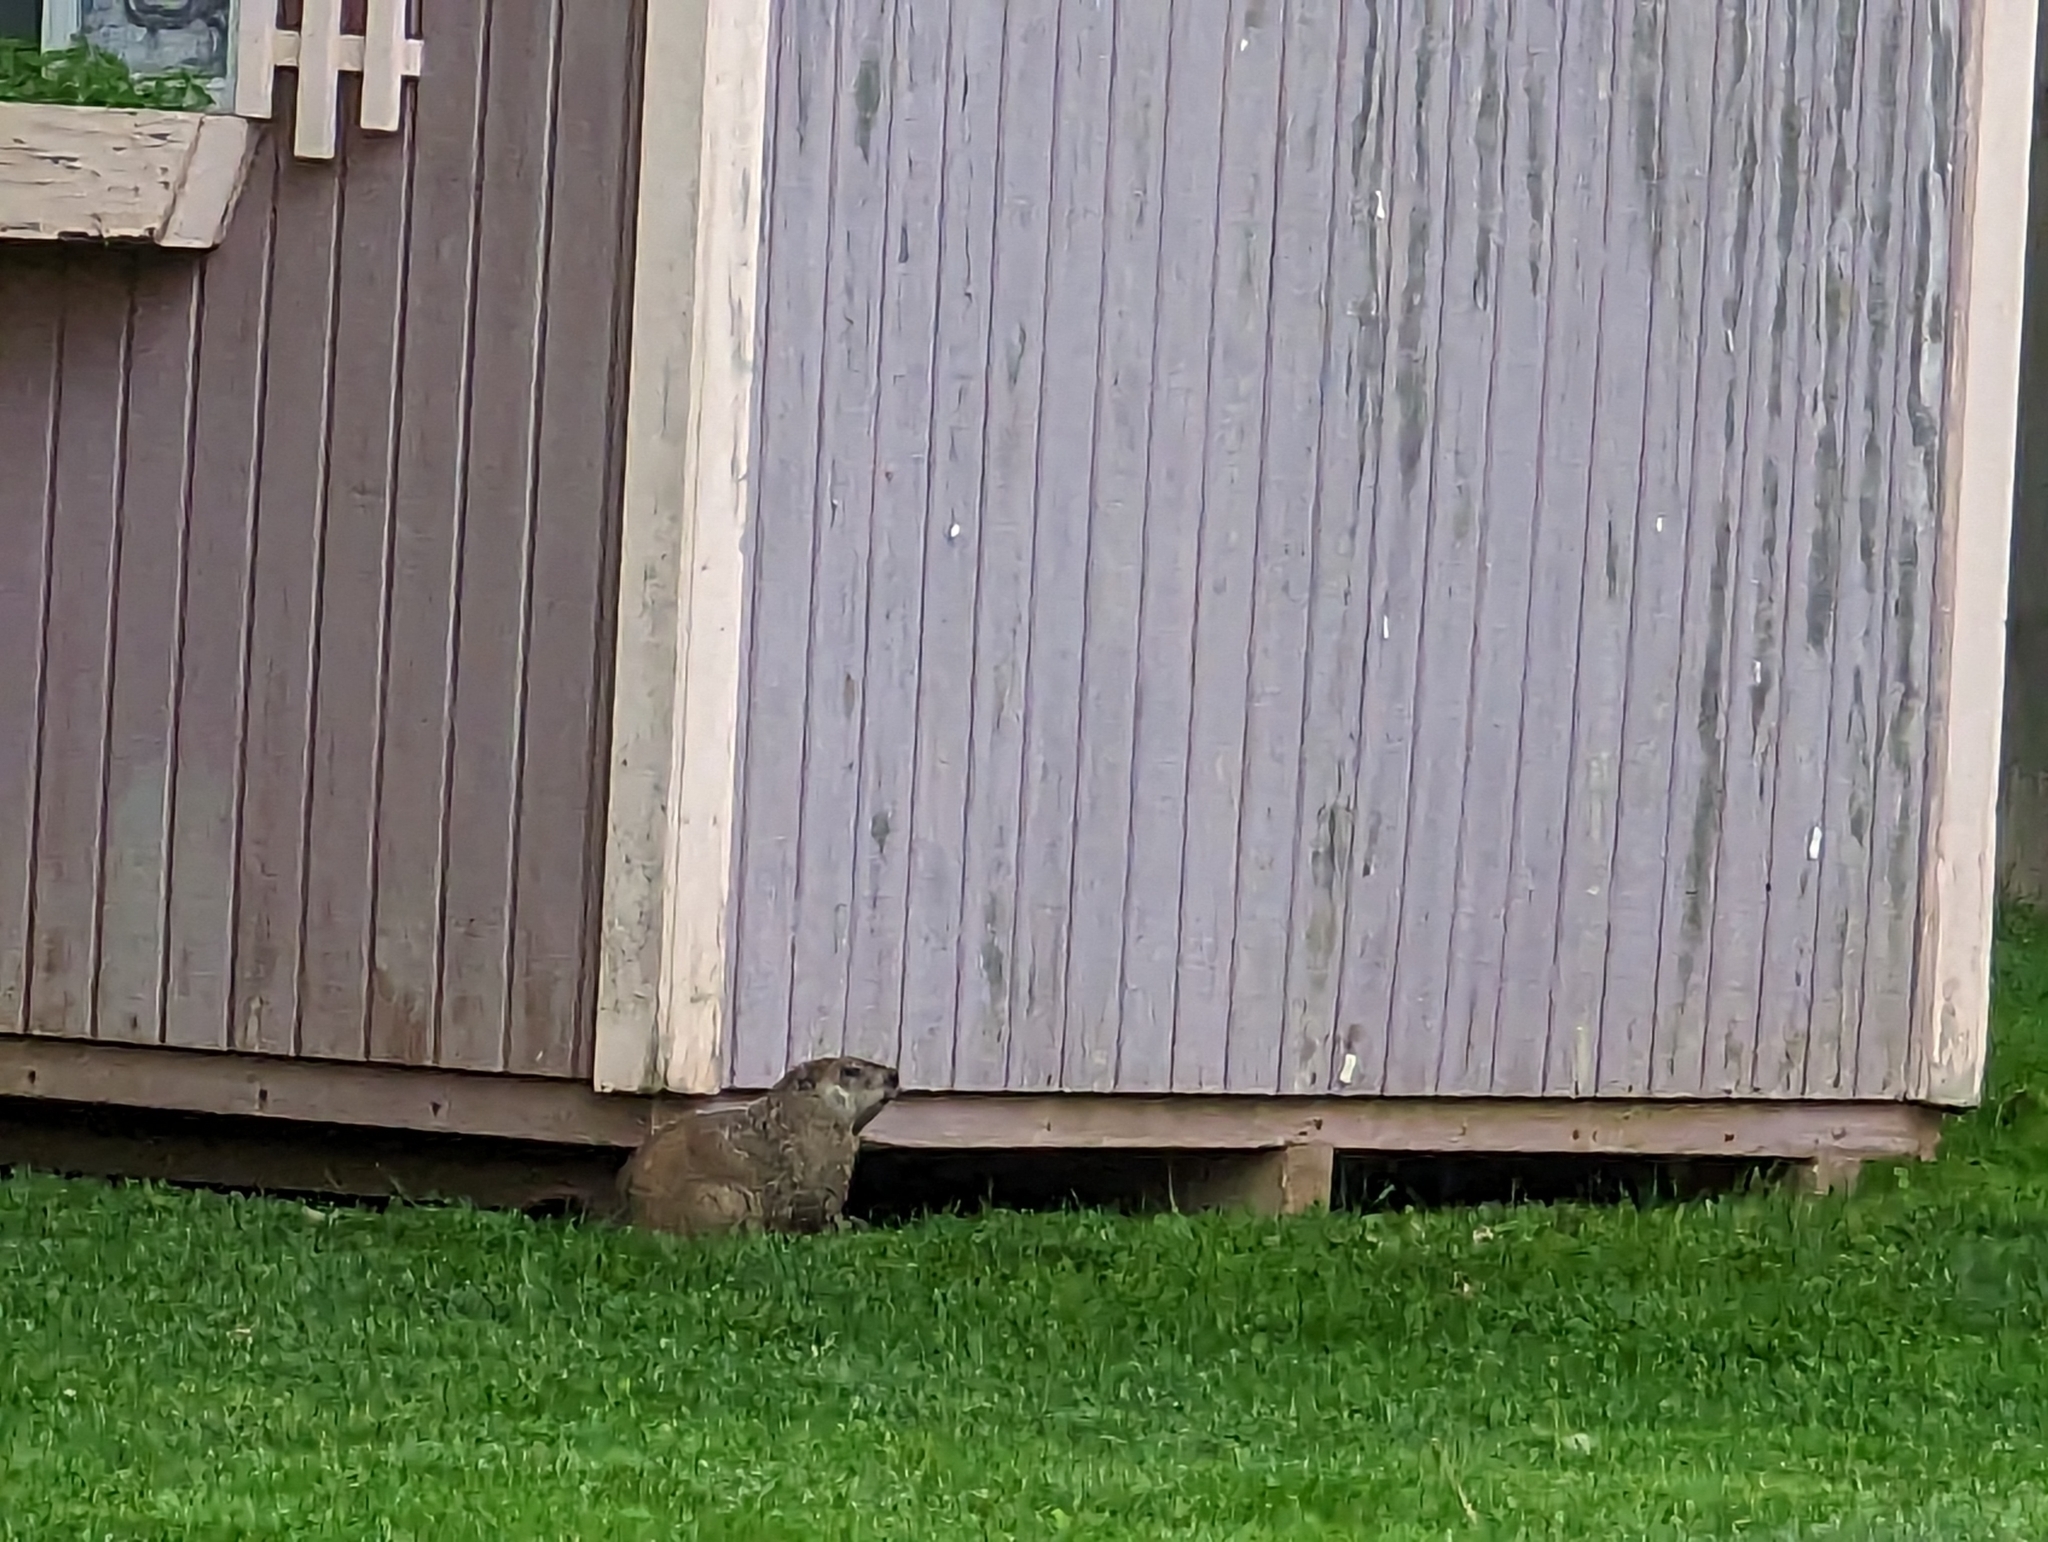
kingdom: Animalia
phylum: Chordata
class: Mammalia
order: Rodentia
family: Sciuridae
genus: Marmota
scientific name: Marmota monax
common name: Groundhog
